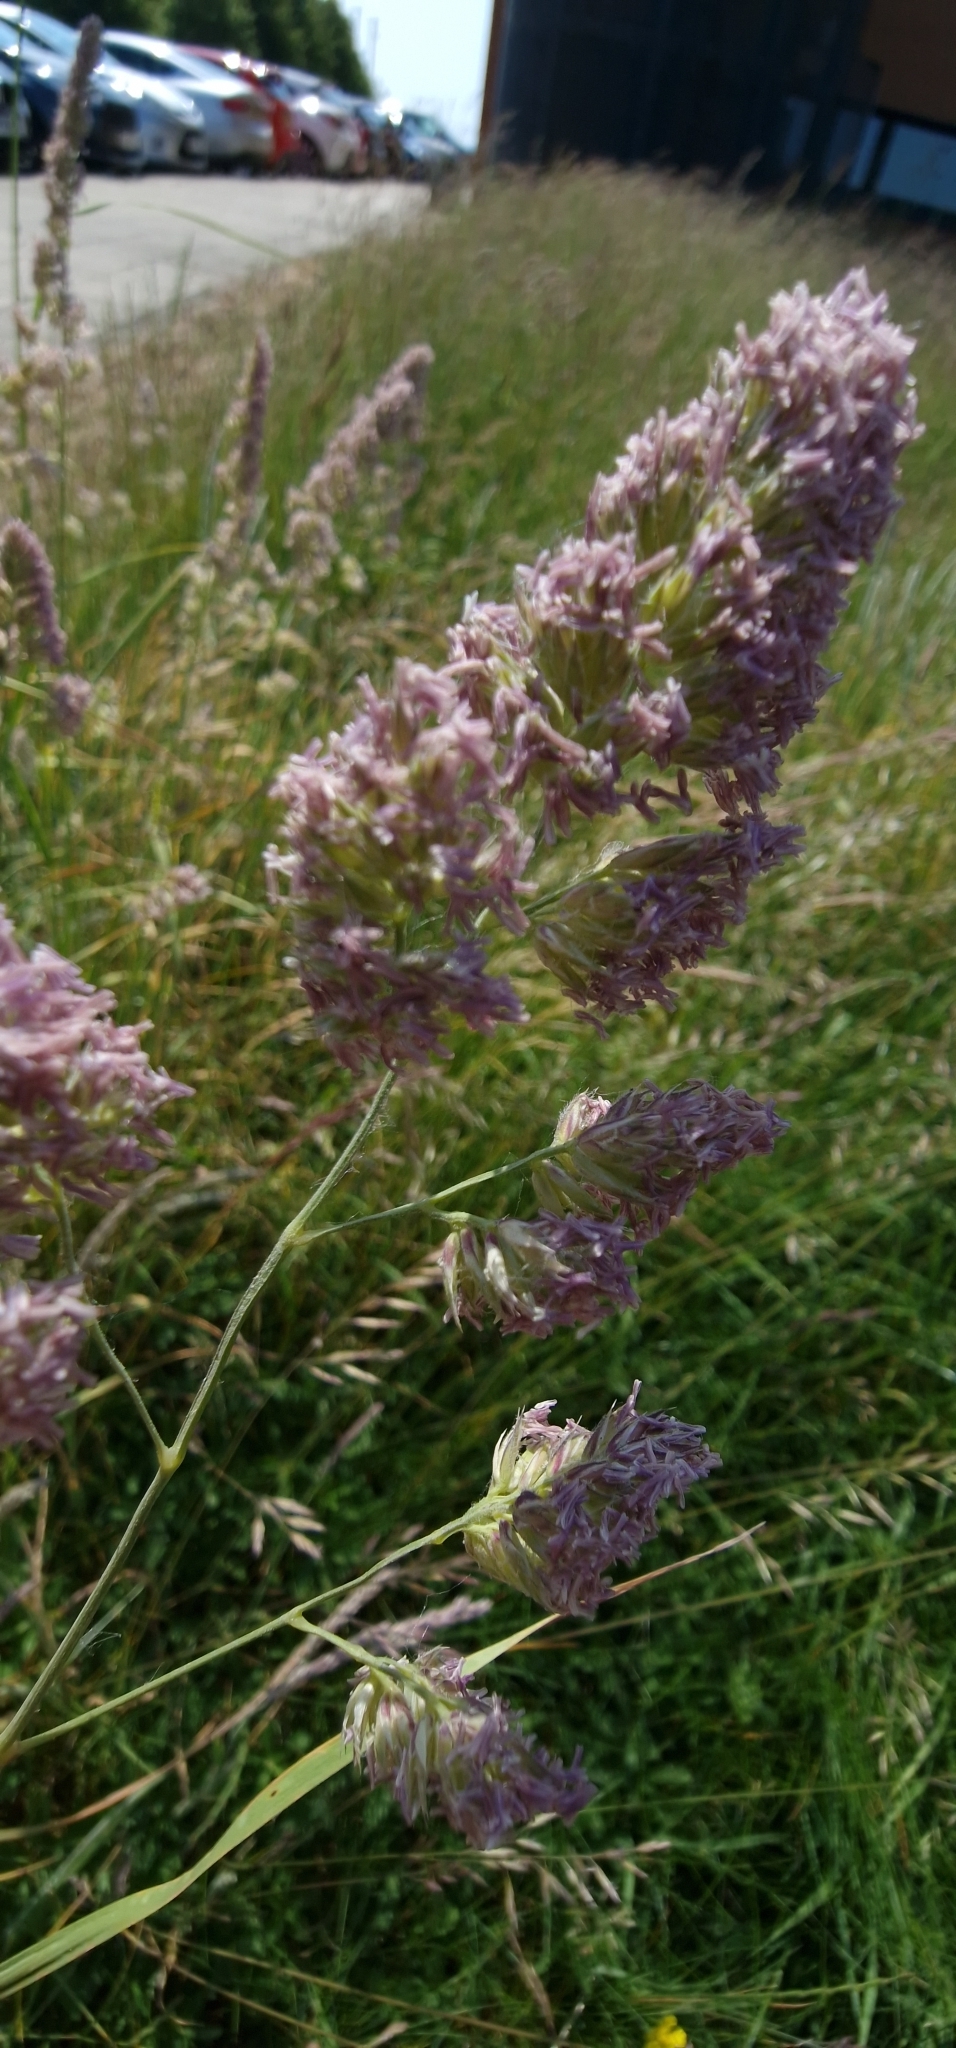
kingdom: Plantae
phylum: Tracheophyta
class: Liliopsida
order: Poales
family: Poaceae
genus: Dactylis
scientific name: Dactylis glomerata
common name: Orchardgrass
